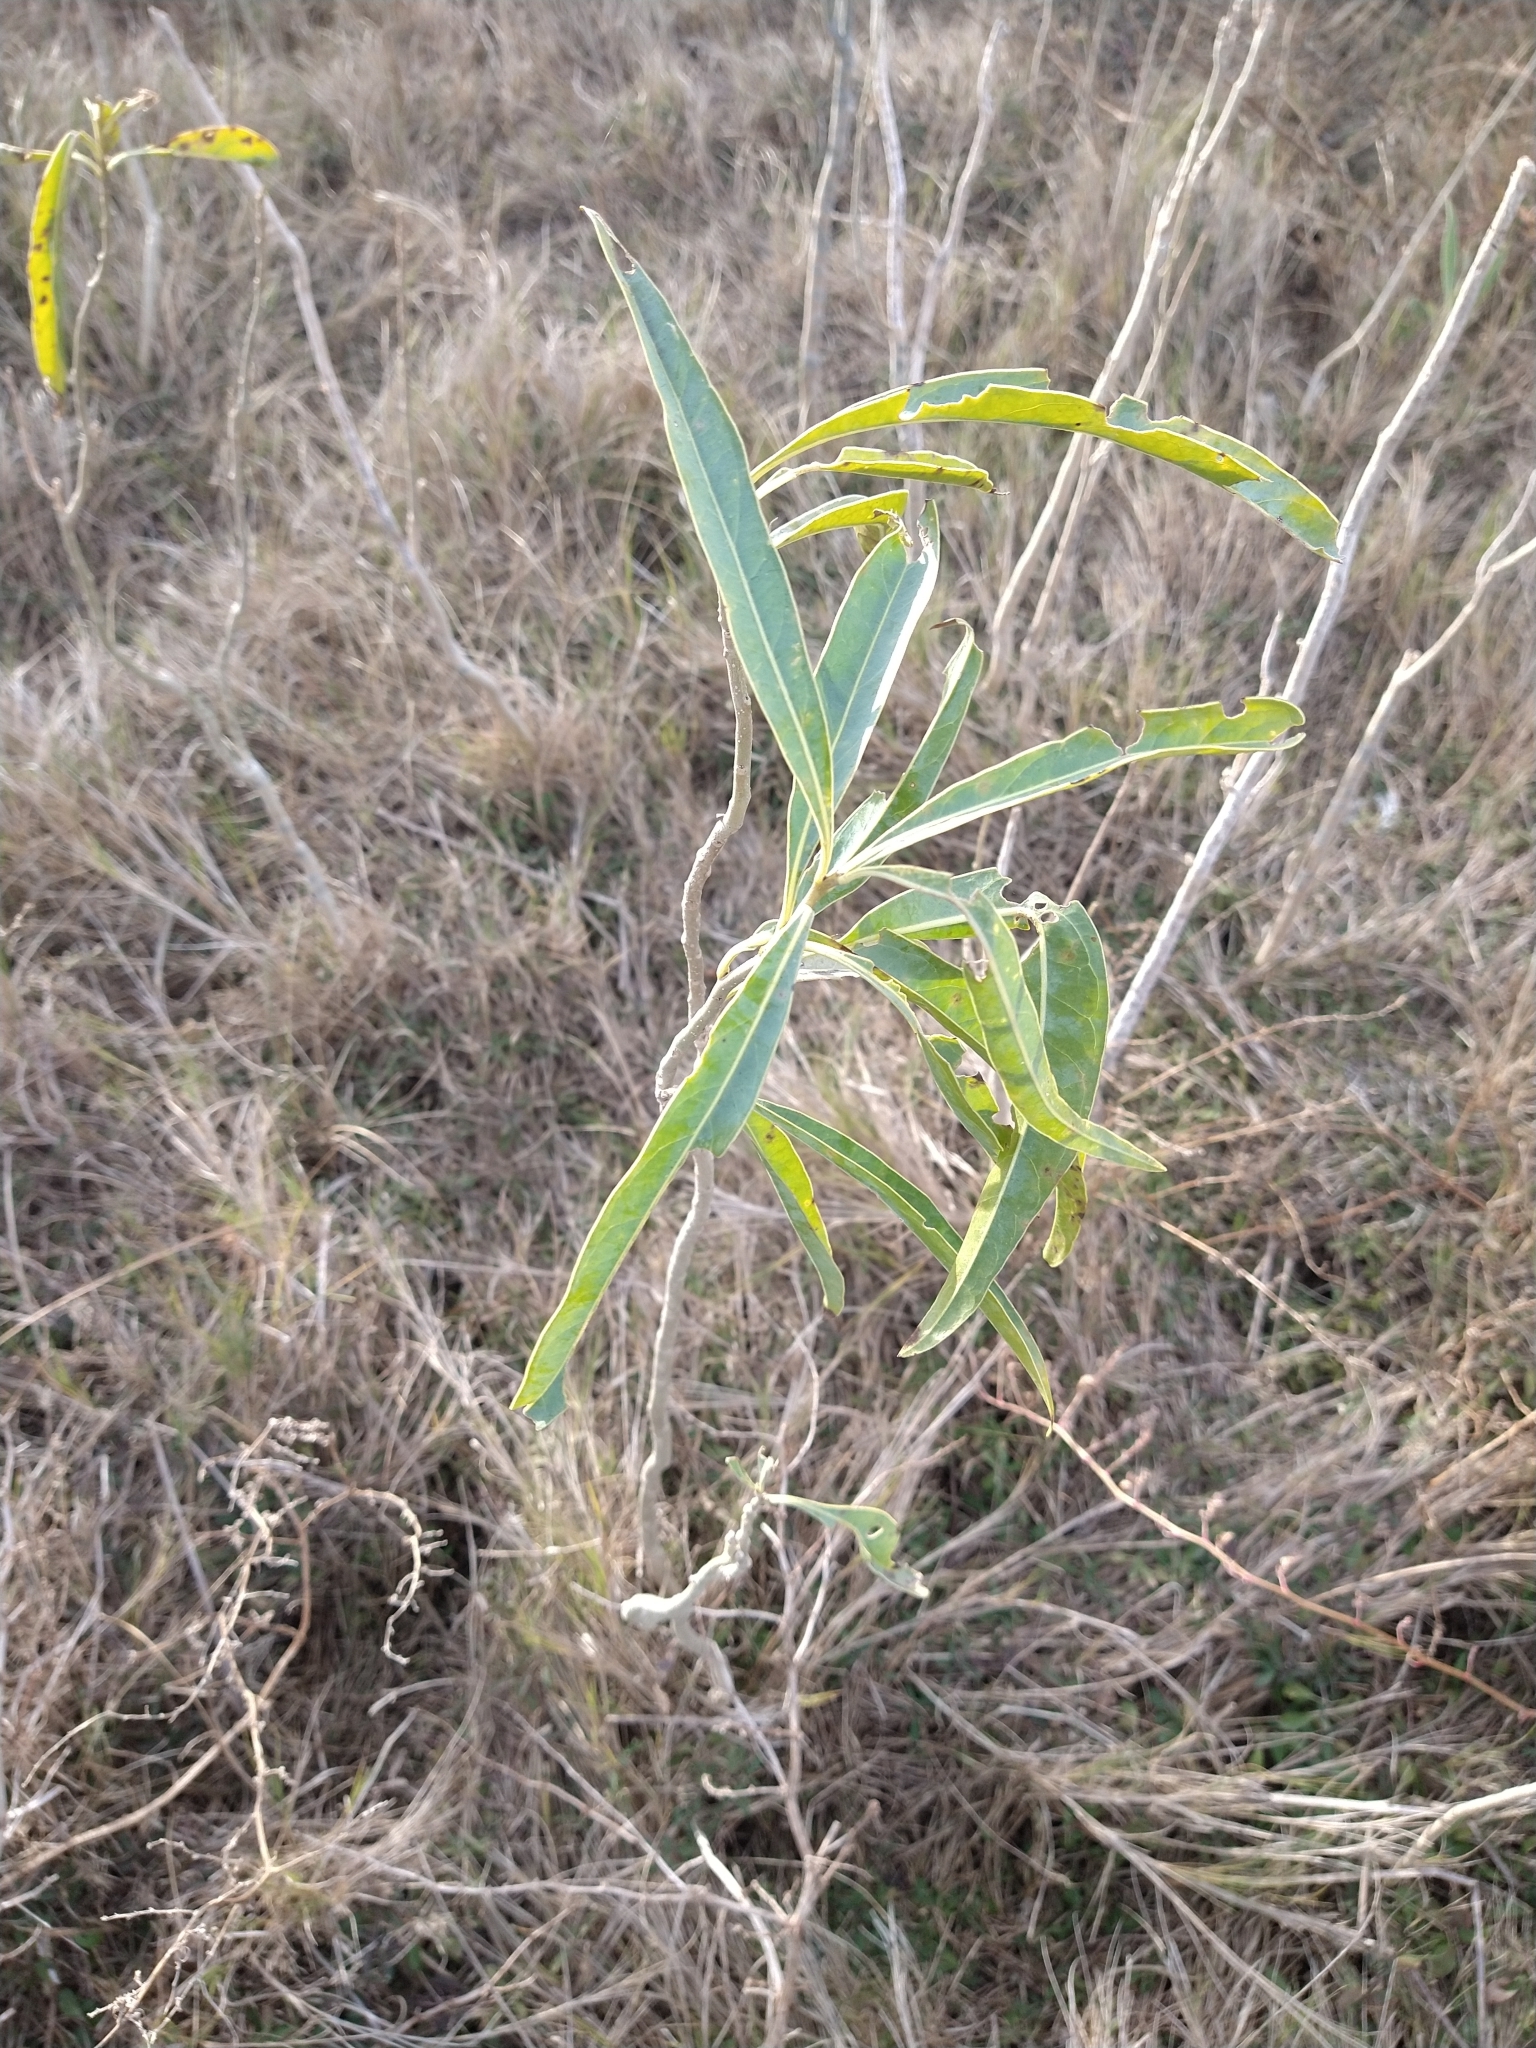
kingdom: Plantae
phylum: Tracheophyta
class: Magnoliopsida
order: Solanales
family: Solanaceae
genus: Solanum
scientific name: Solanum glaucophyllum
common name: Waxyleaf nightshade
